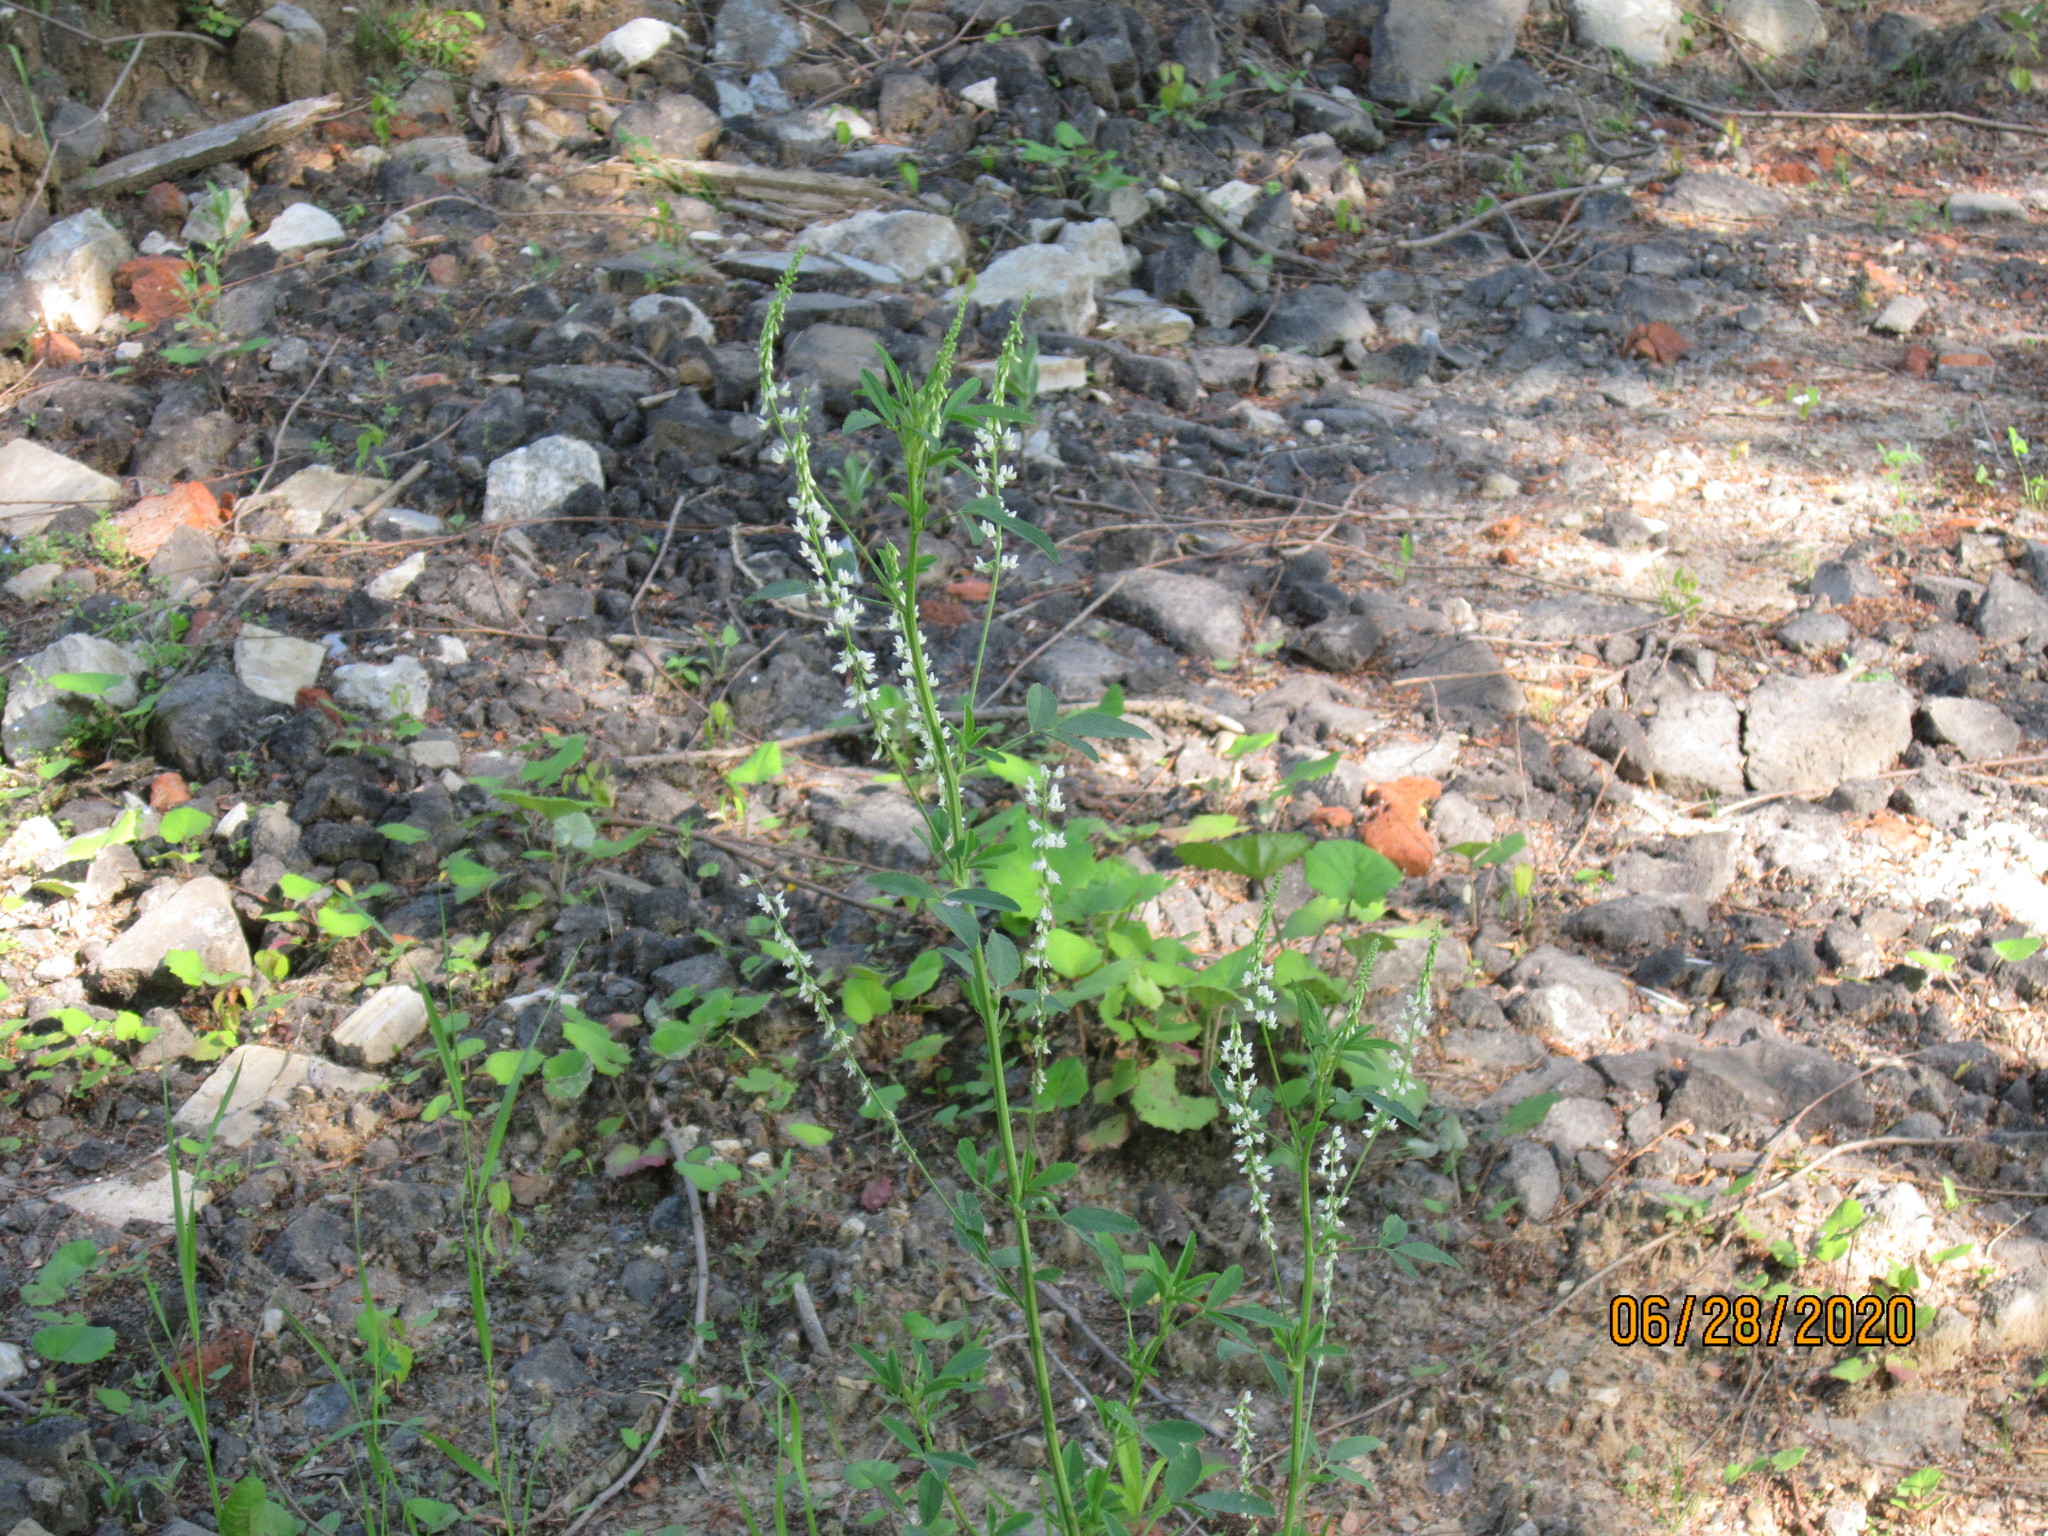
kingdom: Plantae
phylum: Tracheophyta
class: Magnoliopsida
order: Fabales
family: Fabaceae
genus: Melilotus
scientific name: Melilotus albus
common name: White melilot
